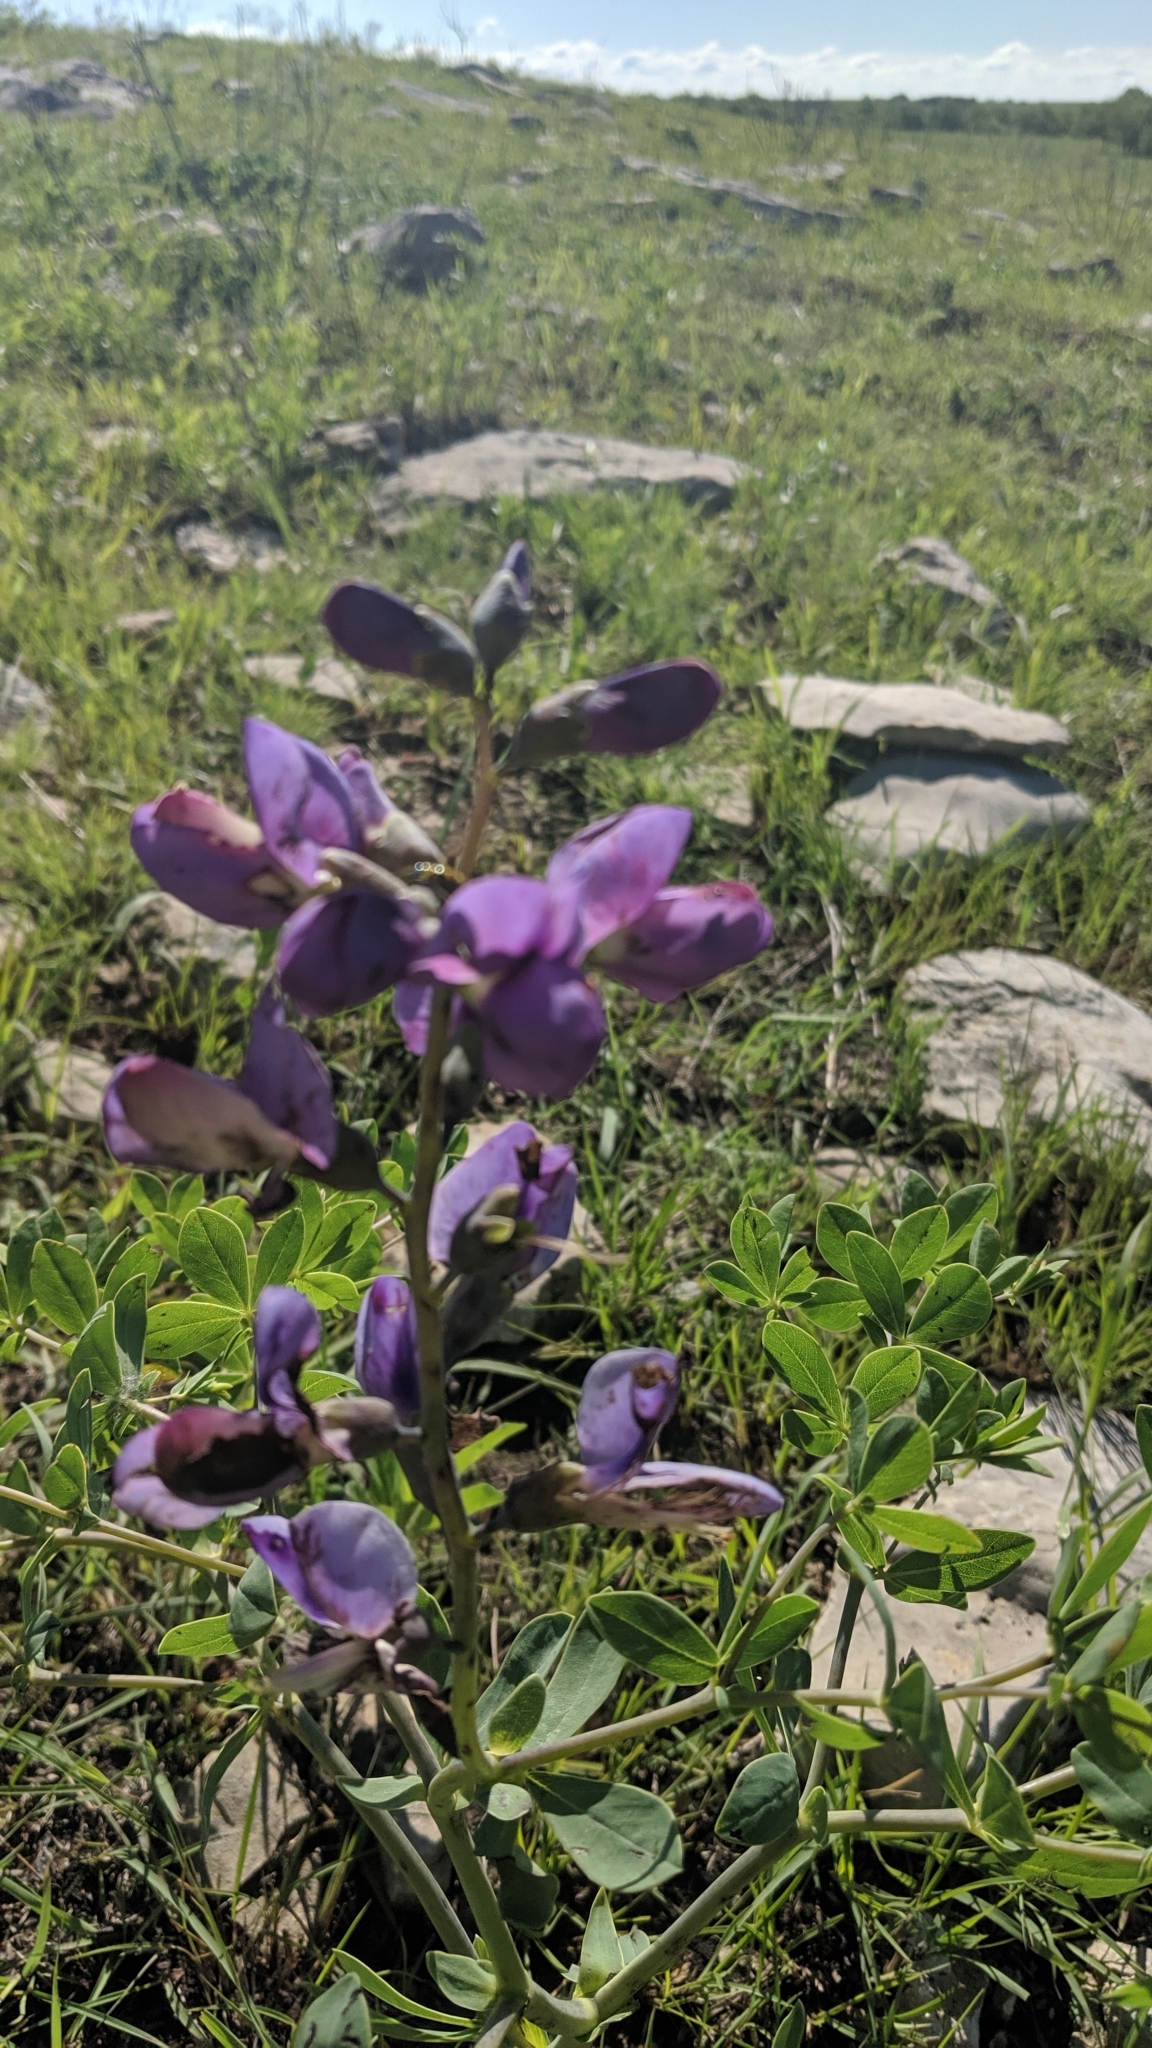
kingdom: Plantae
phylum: Tracheophyta
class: Magnoliopsida
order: Fabales
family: Fabaceae
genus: Baptisia
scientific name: Baptisia australis
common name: Blue false indigo
